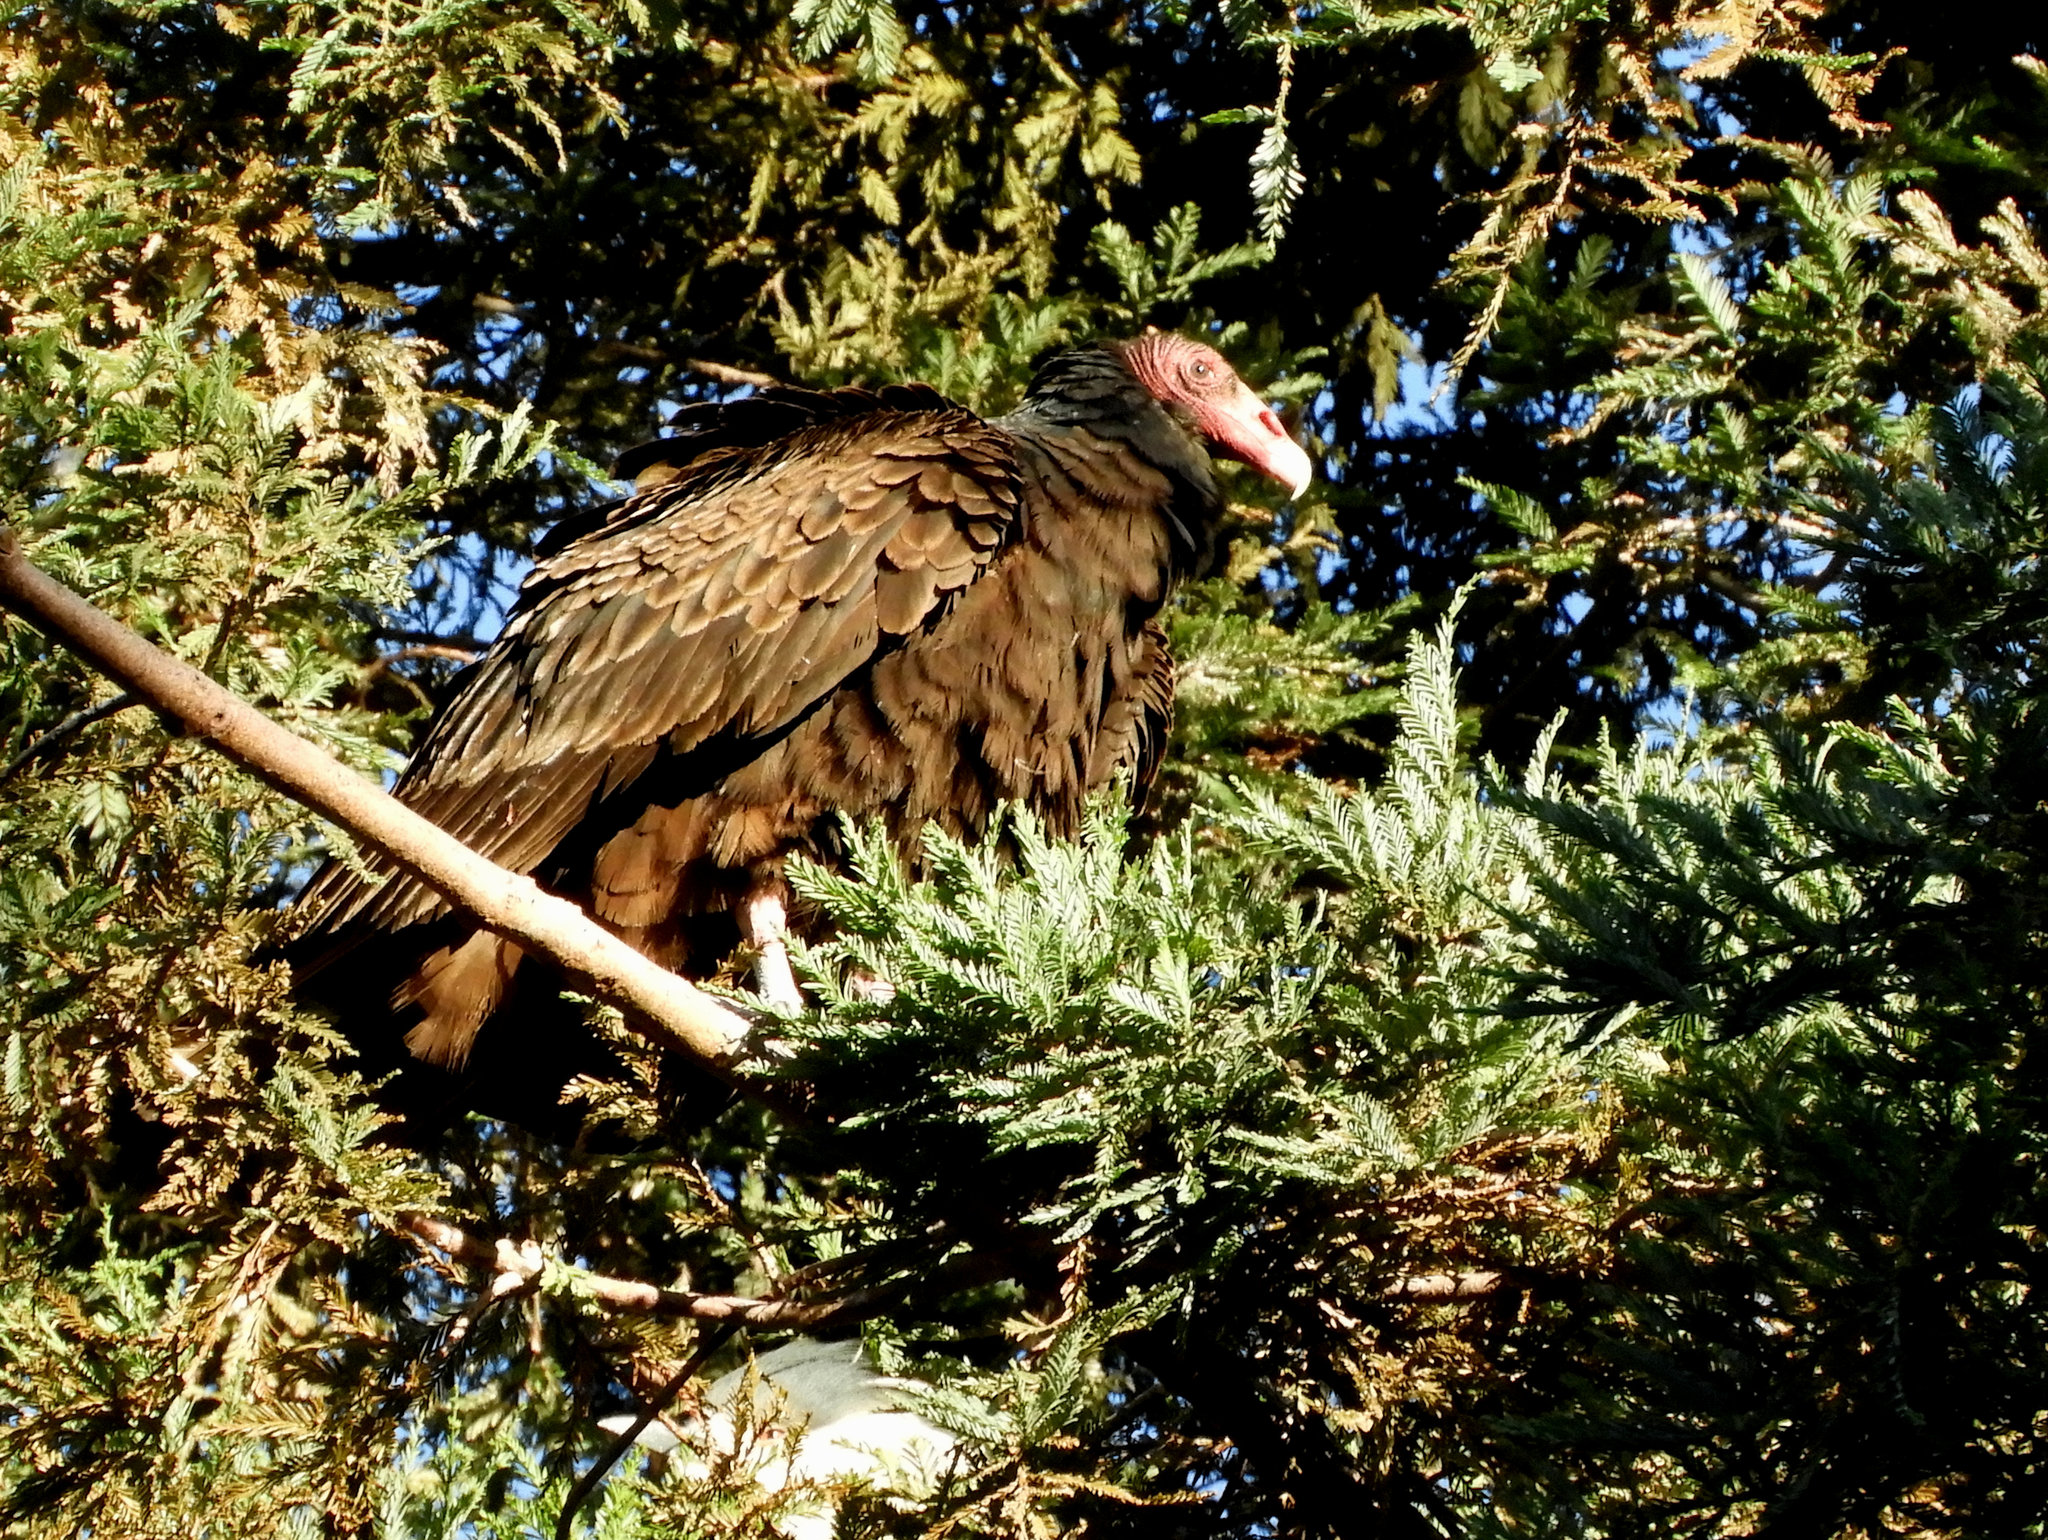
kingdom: Animalia
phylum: Chordata
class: Aves
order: Accipitriformes
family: Cathartidae
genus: Cathartes
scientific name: Cathartes aura
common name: Turkey vulture
